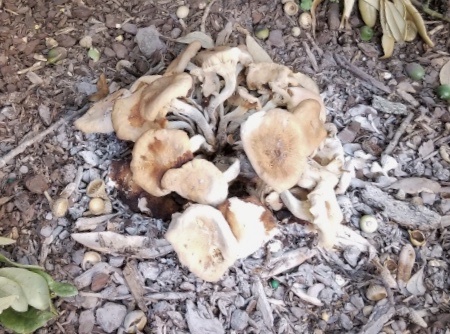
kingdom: Fungi
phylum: Basidiomycota
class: Agaricomycetes
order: Agaricales
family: Physalacriaceae
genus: Desarmillaria
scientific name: Desarmillaria caespitosa
